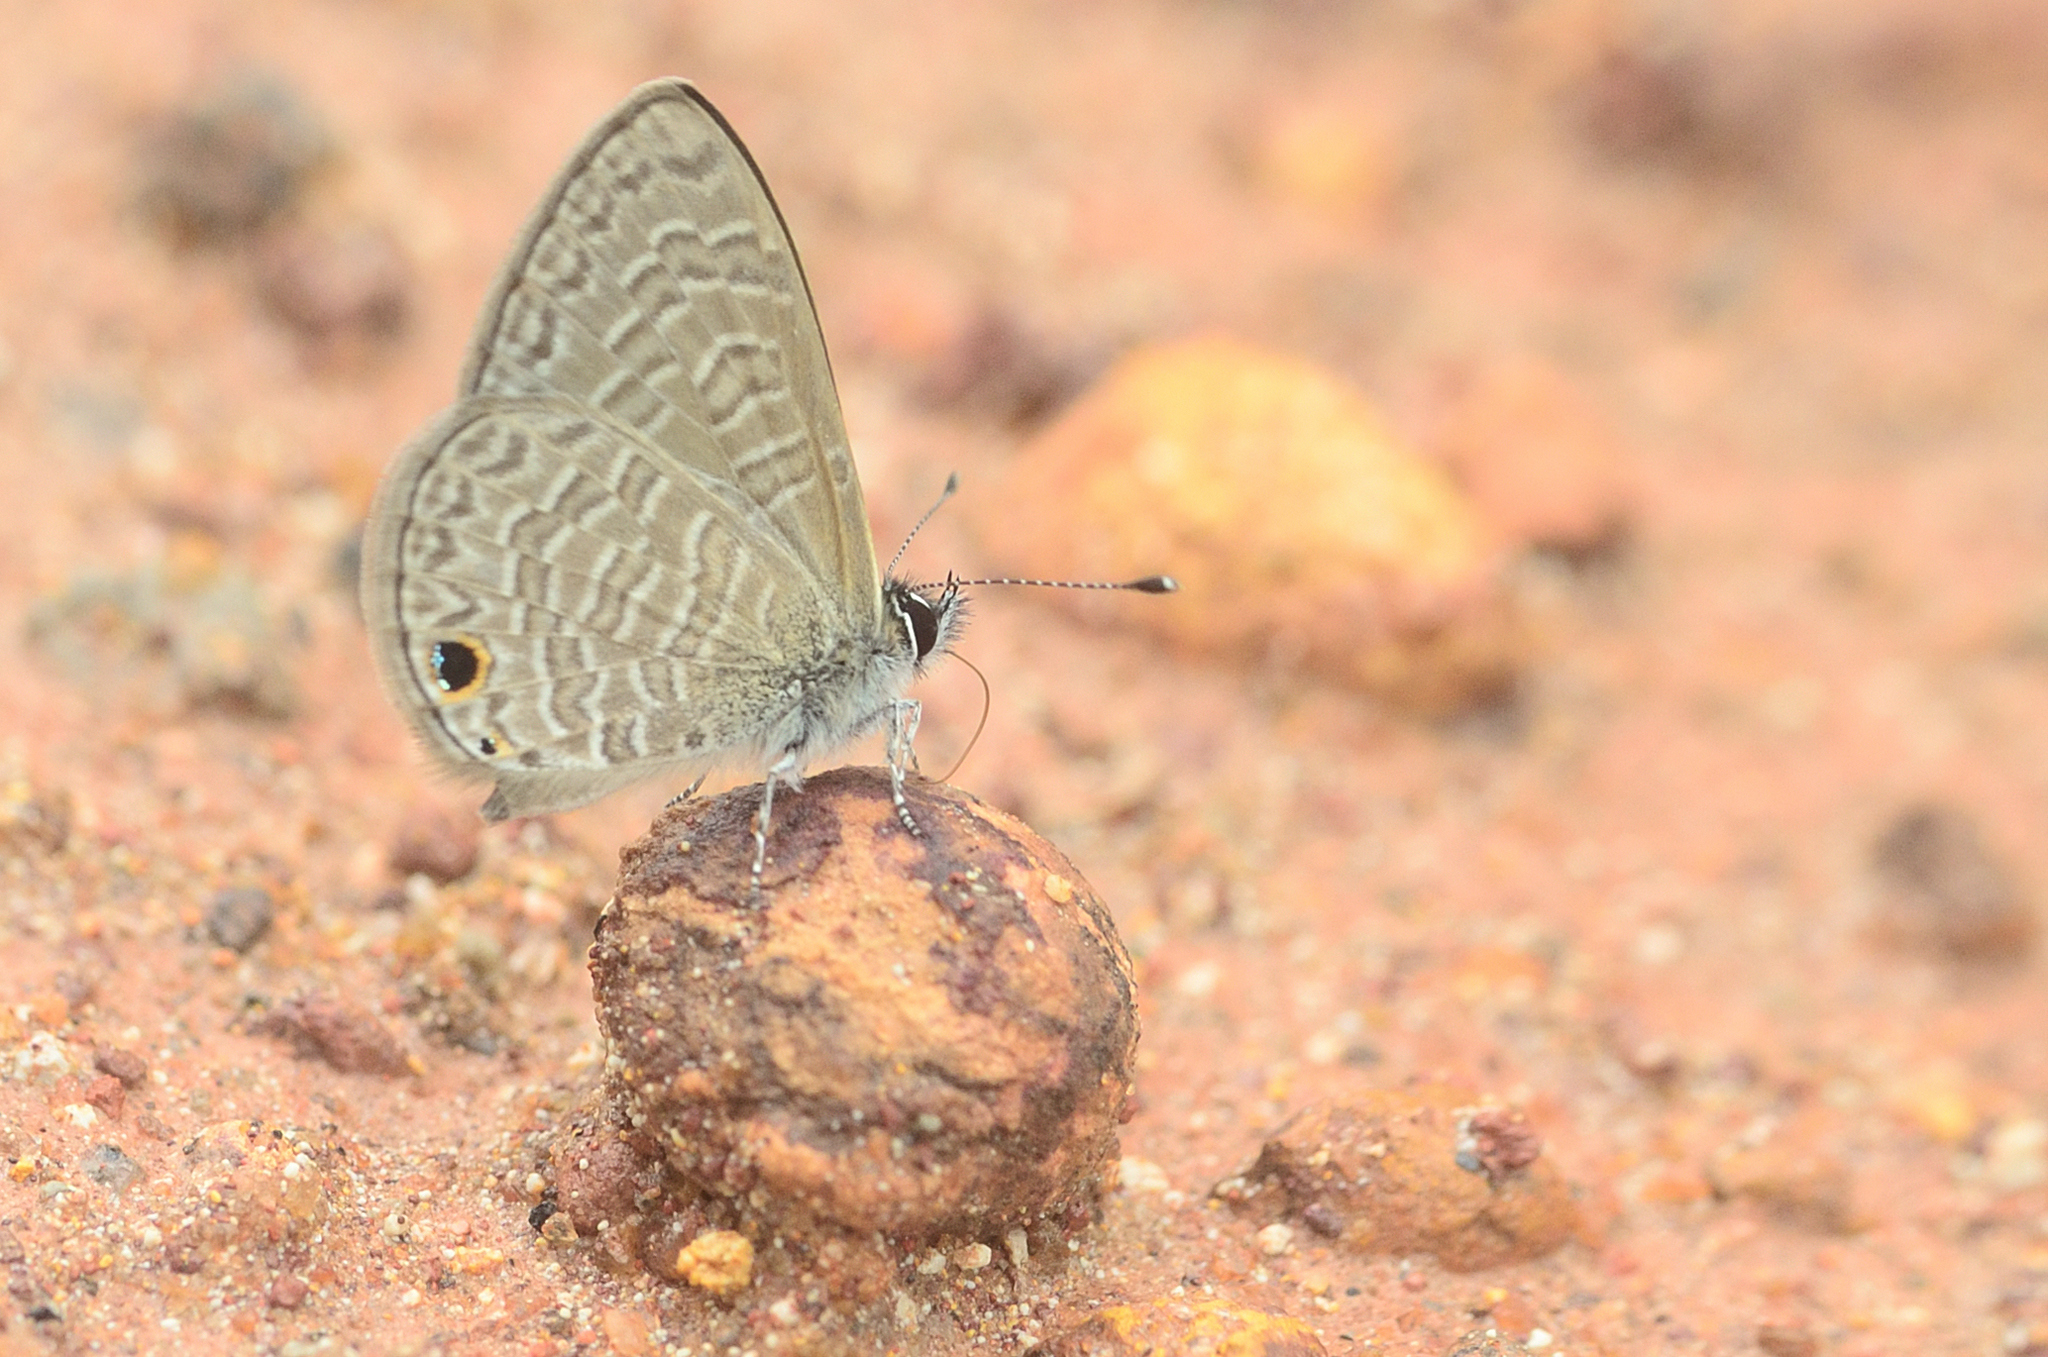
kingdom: Animalia
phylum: Arthropoda
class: Insecta
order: Lepidoptera
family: Lycaenidae
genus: Prosotas
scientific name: Prosotas dubiosa
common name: Tailless lineblue
